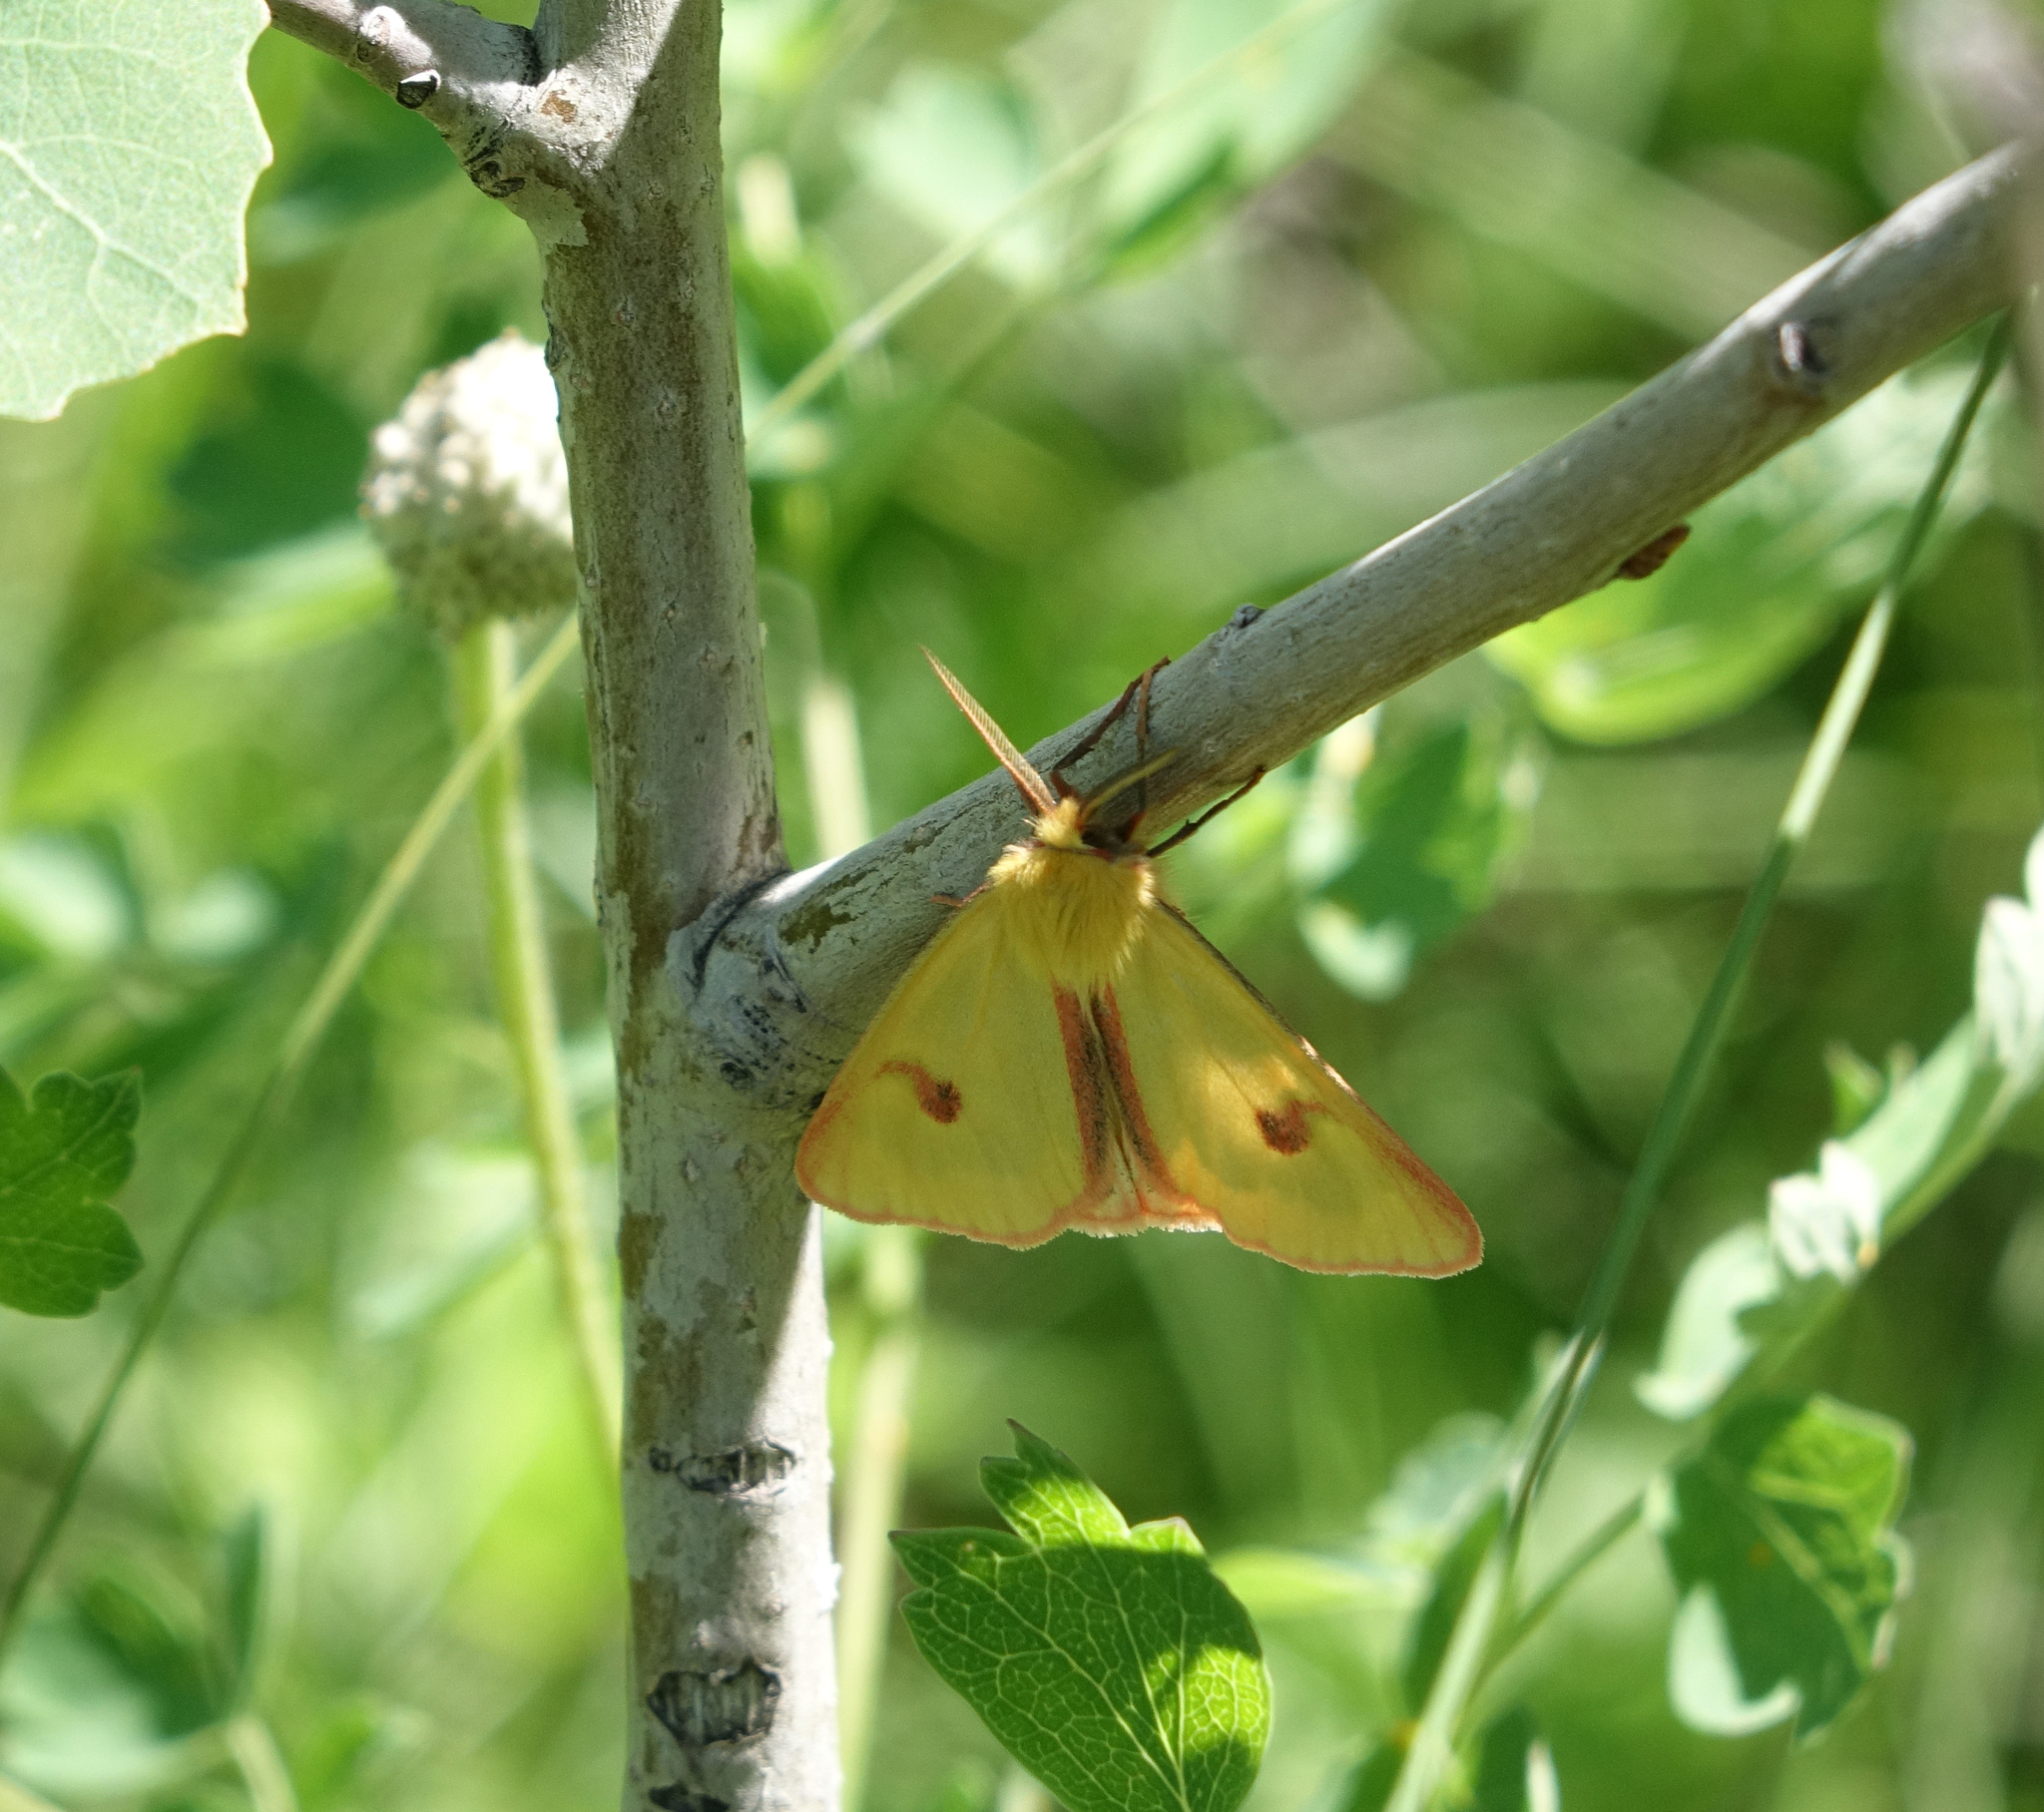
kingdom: Animalia
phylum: Arthropoda
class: Insecta
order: Lepidoptera
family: Erebidae
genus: Diacrisia
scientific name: Diacrisia sannio
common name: Clouded buff
